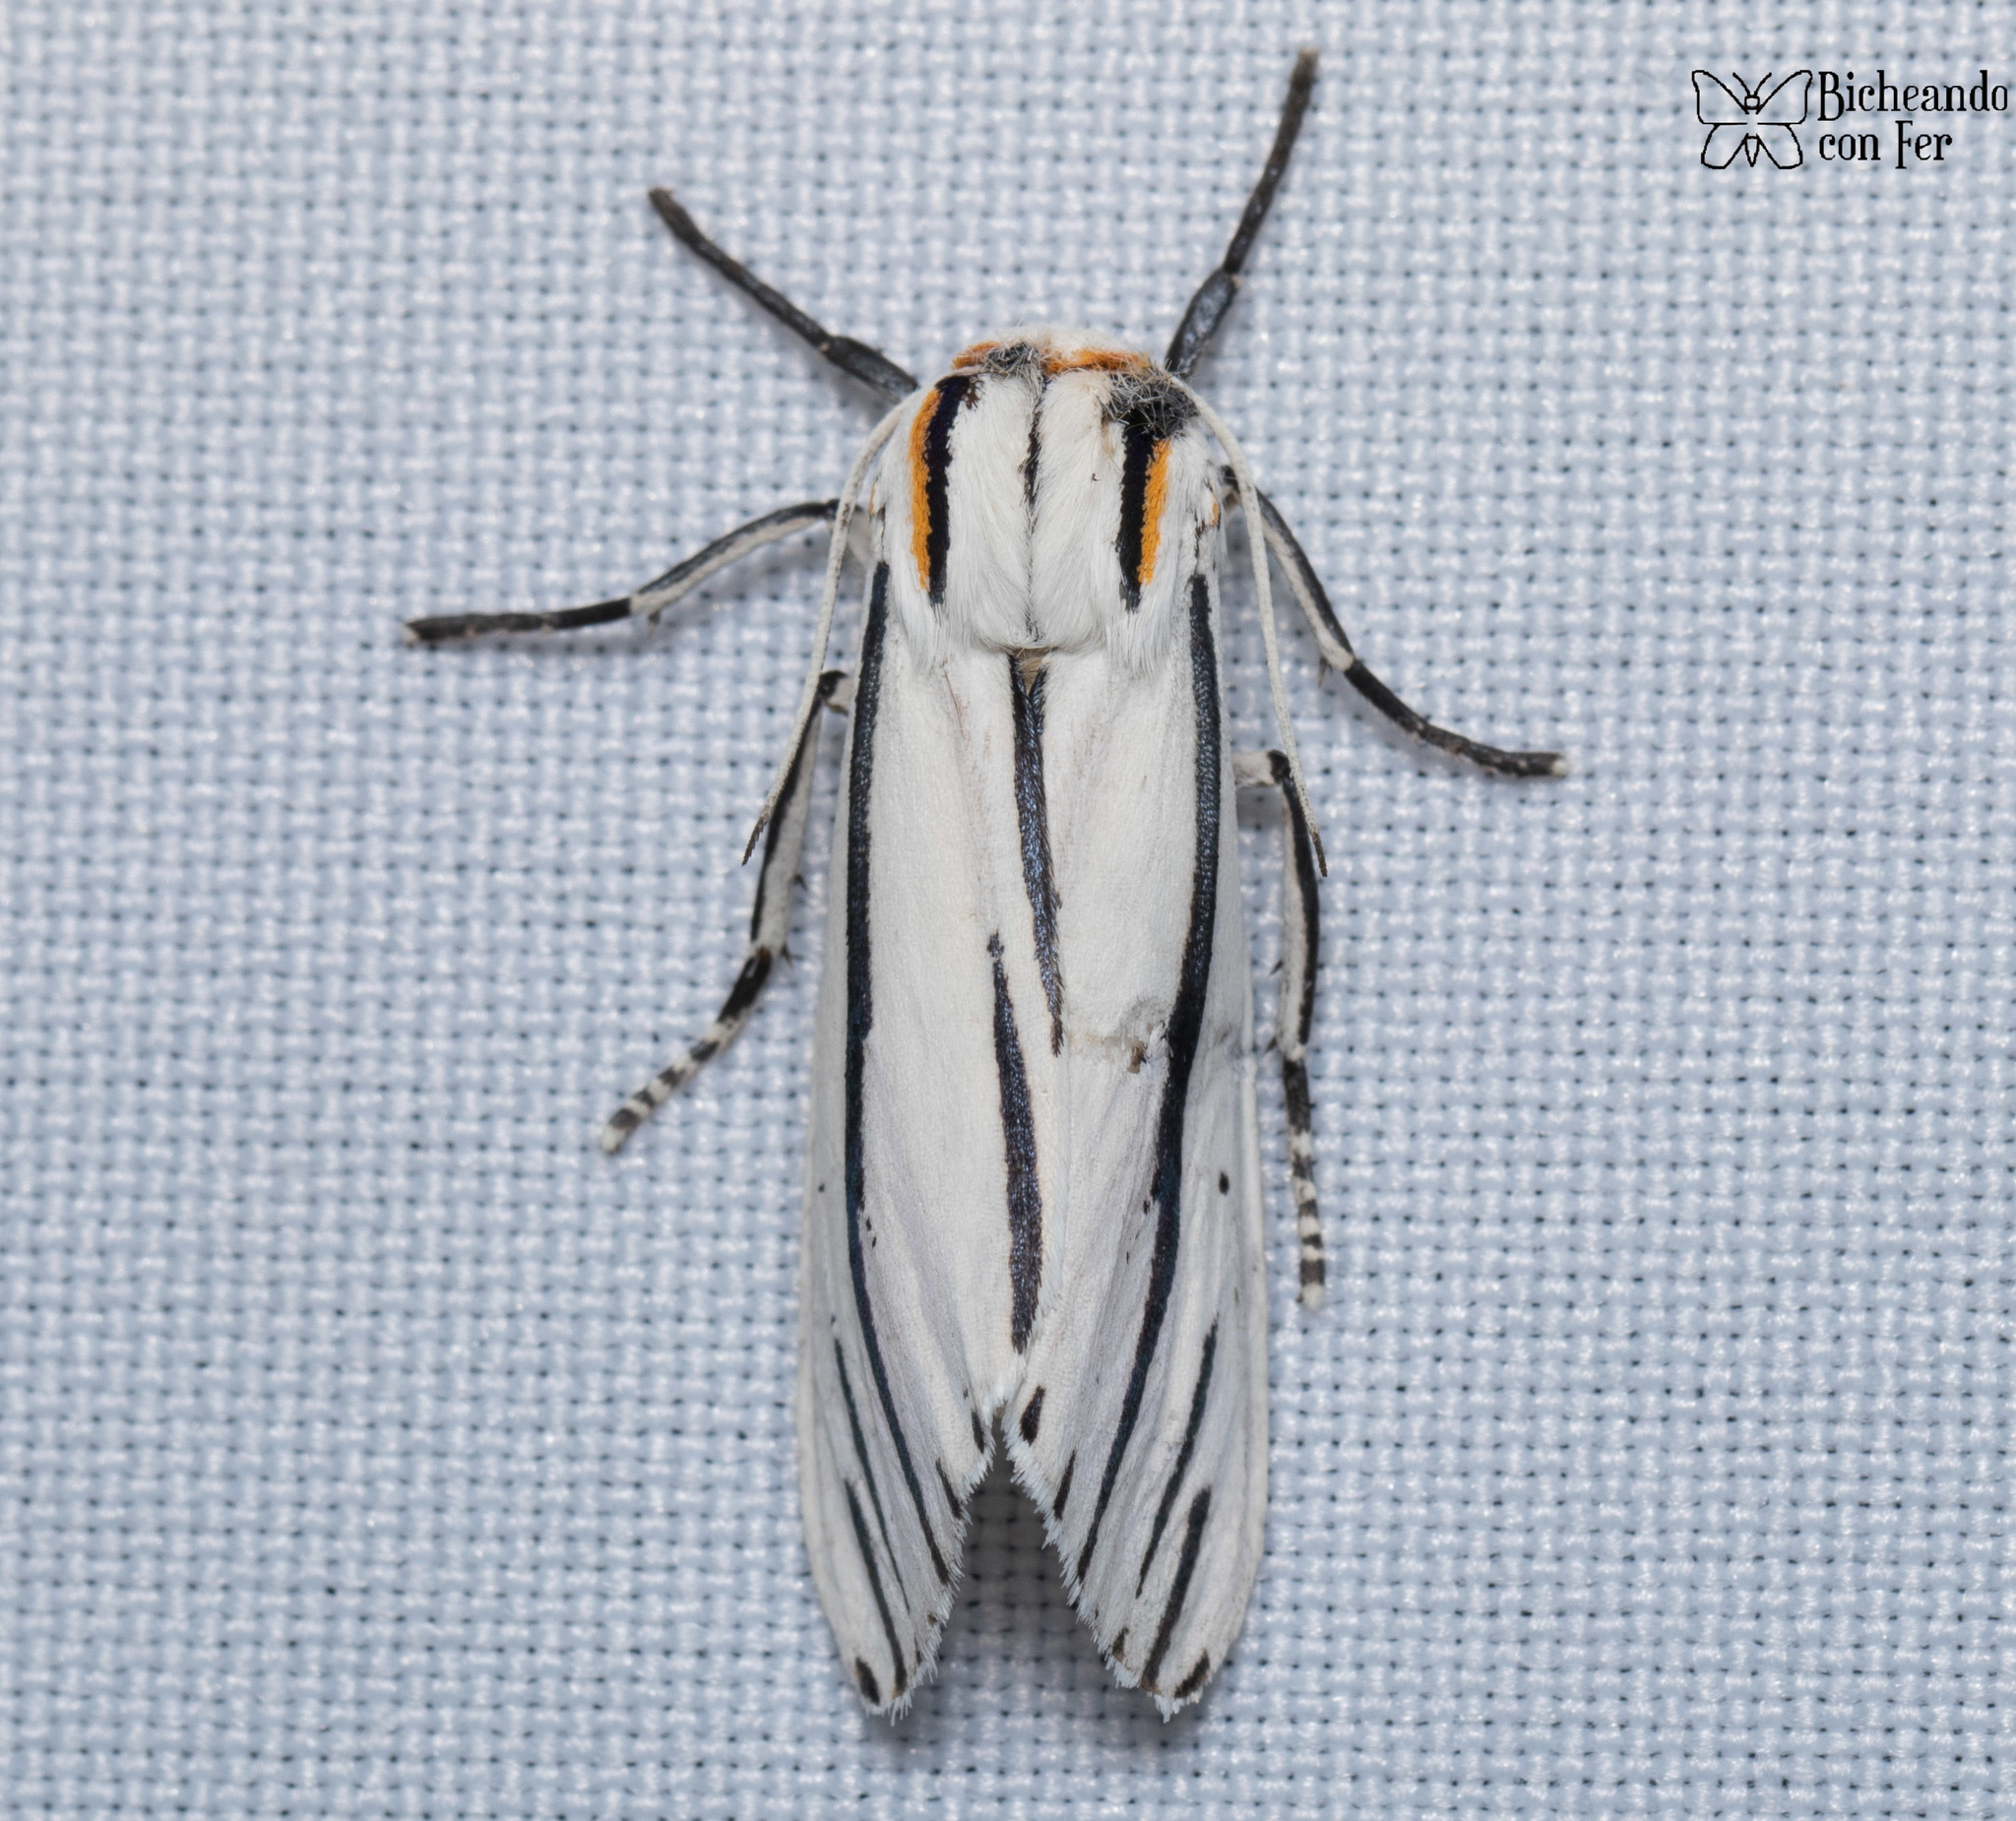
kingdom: Animalia
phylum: Arthropoda
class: Insecta
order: Lepidoptera
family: Erebidae
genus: Ectypia
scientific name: Ectypia clio
